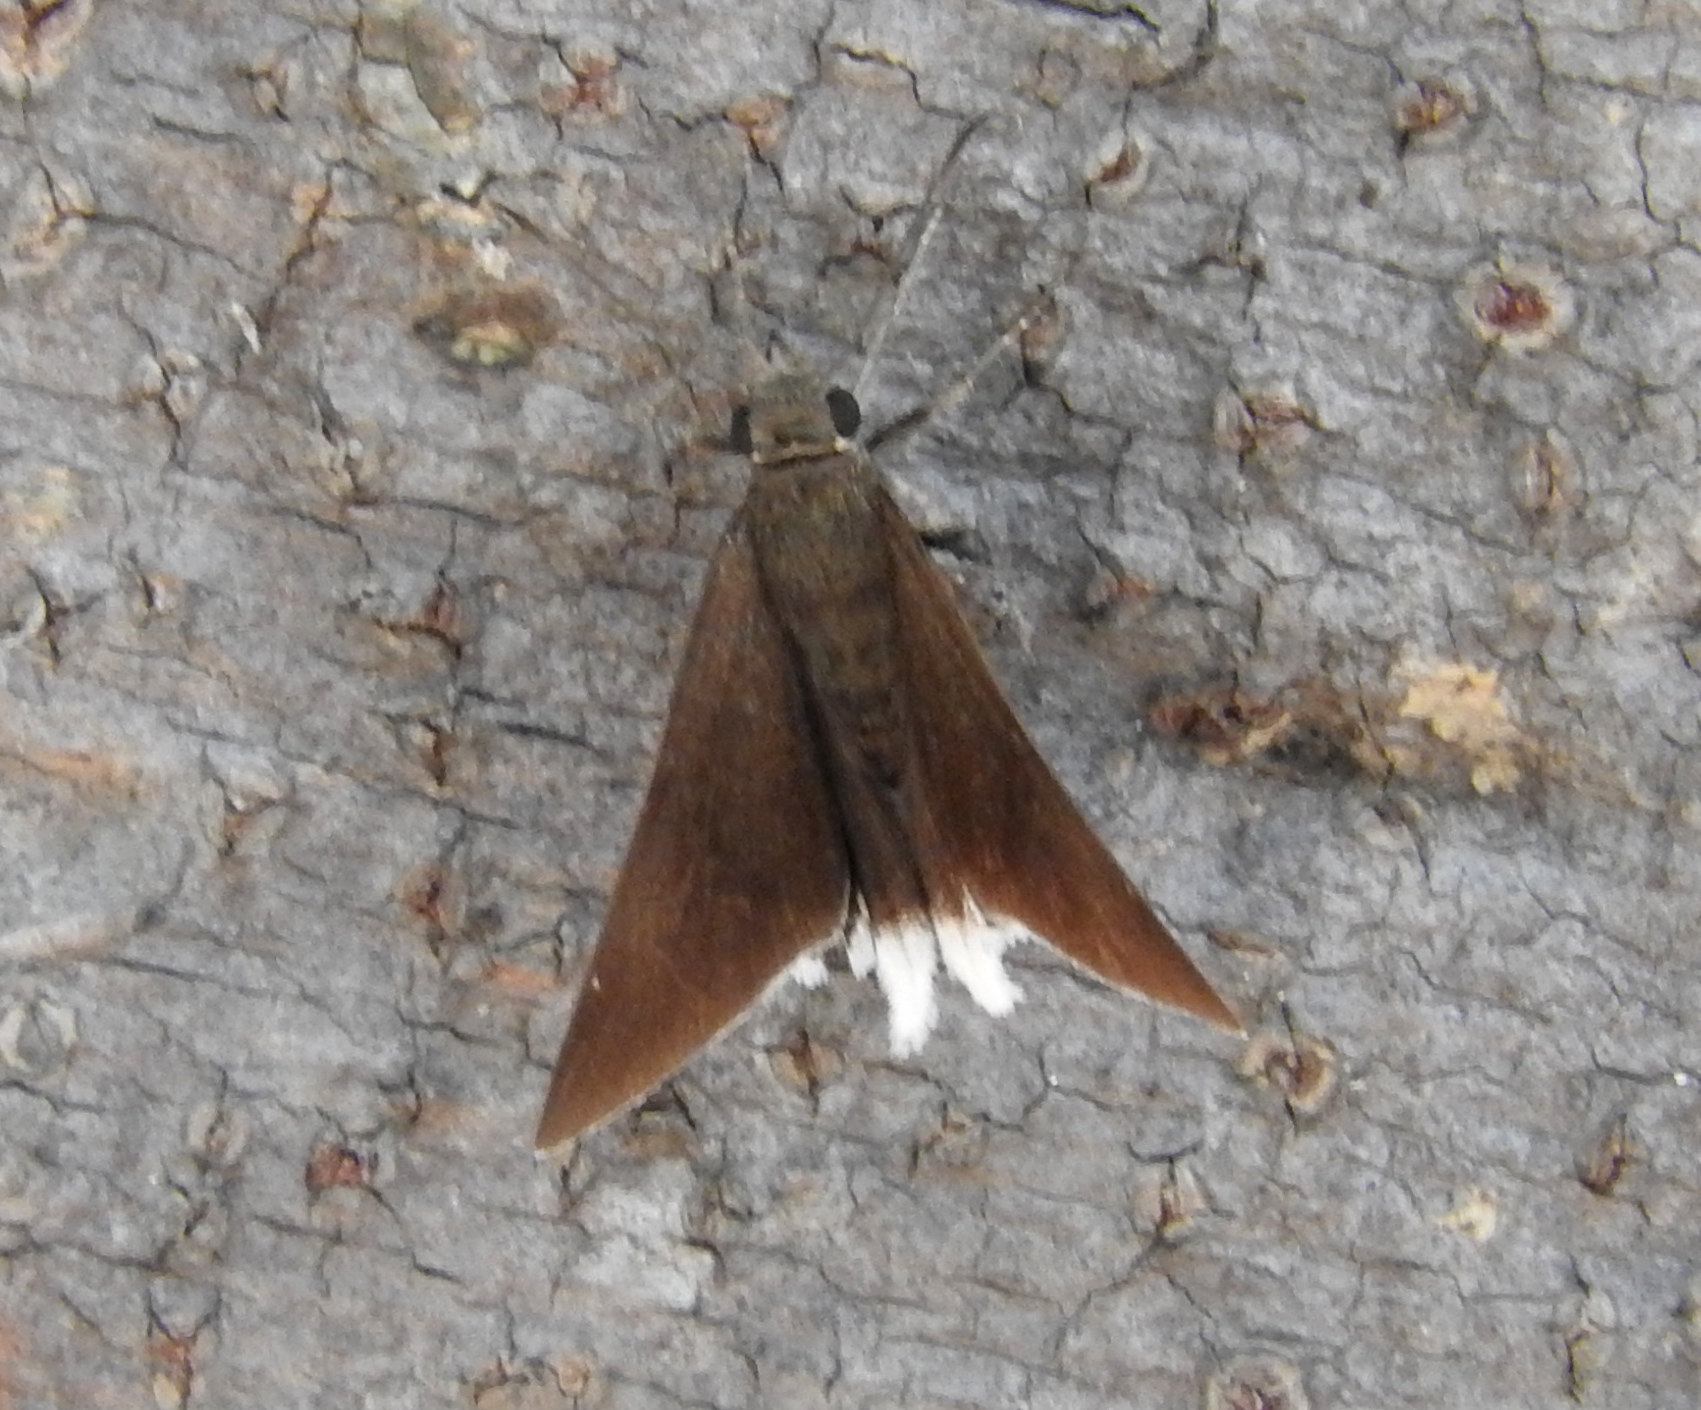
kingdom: Animalia
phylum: Arthropoda
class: Insecta
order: Lepidoptera
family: Hesperiidae
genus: Achalarus
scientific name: Achalarus
